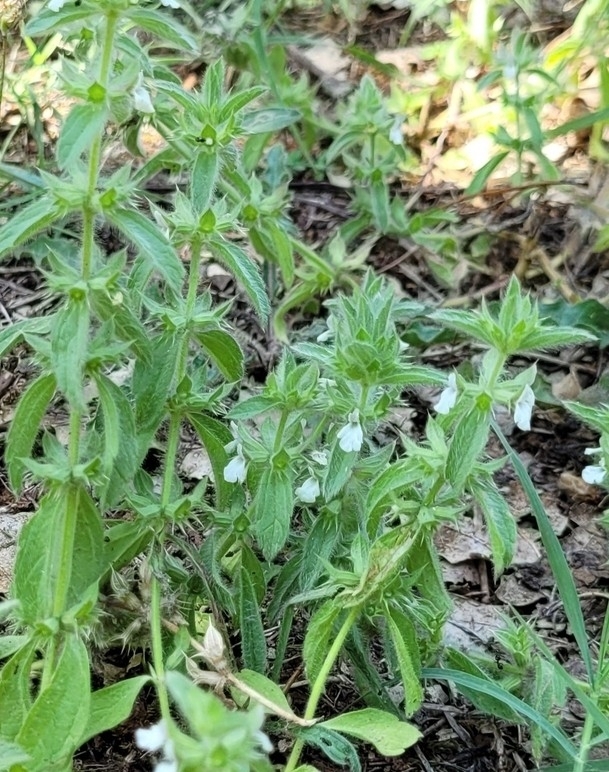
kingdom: Plantae
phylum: Tracheophyta
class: Magnoliopsida
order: Lamiales
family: Lamiaceae
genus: Sideritis
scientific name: Sideritis romana
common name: Simplebeak ironwort
